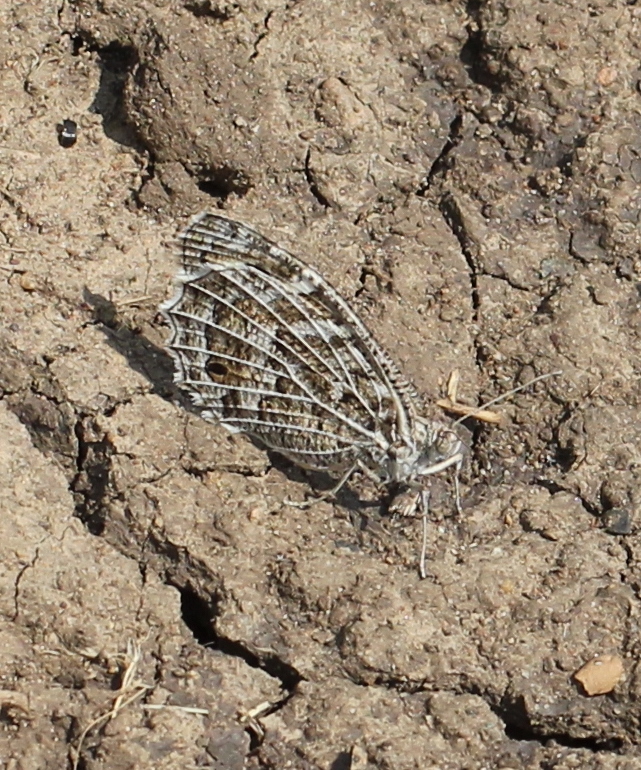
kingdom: Animalia
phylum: Arthropoda
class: Insecta
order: Lepidoptera
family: Nymphalidae
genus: Satyrus
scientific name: Satyrus Chazara persephone
